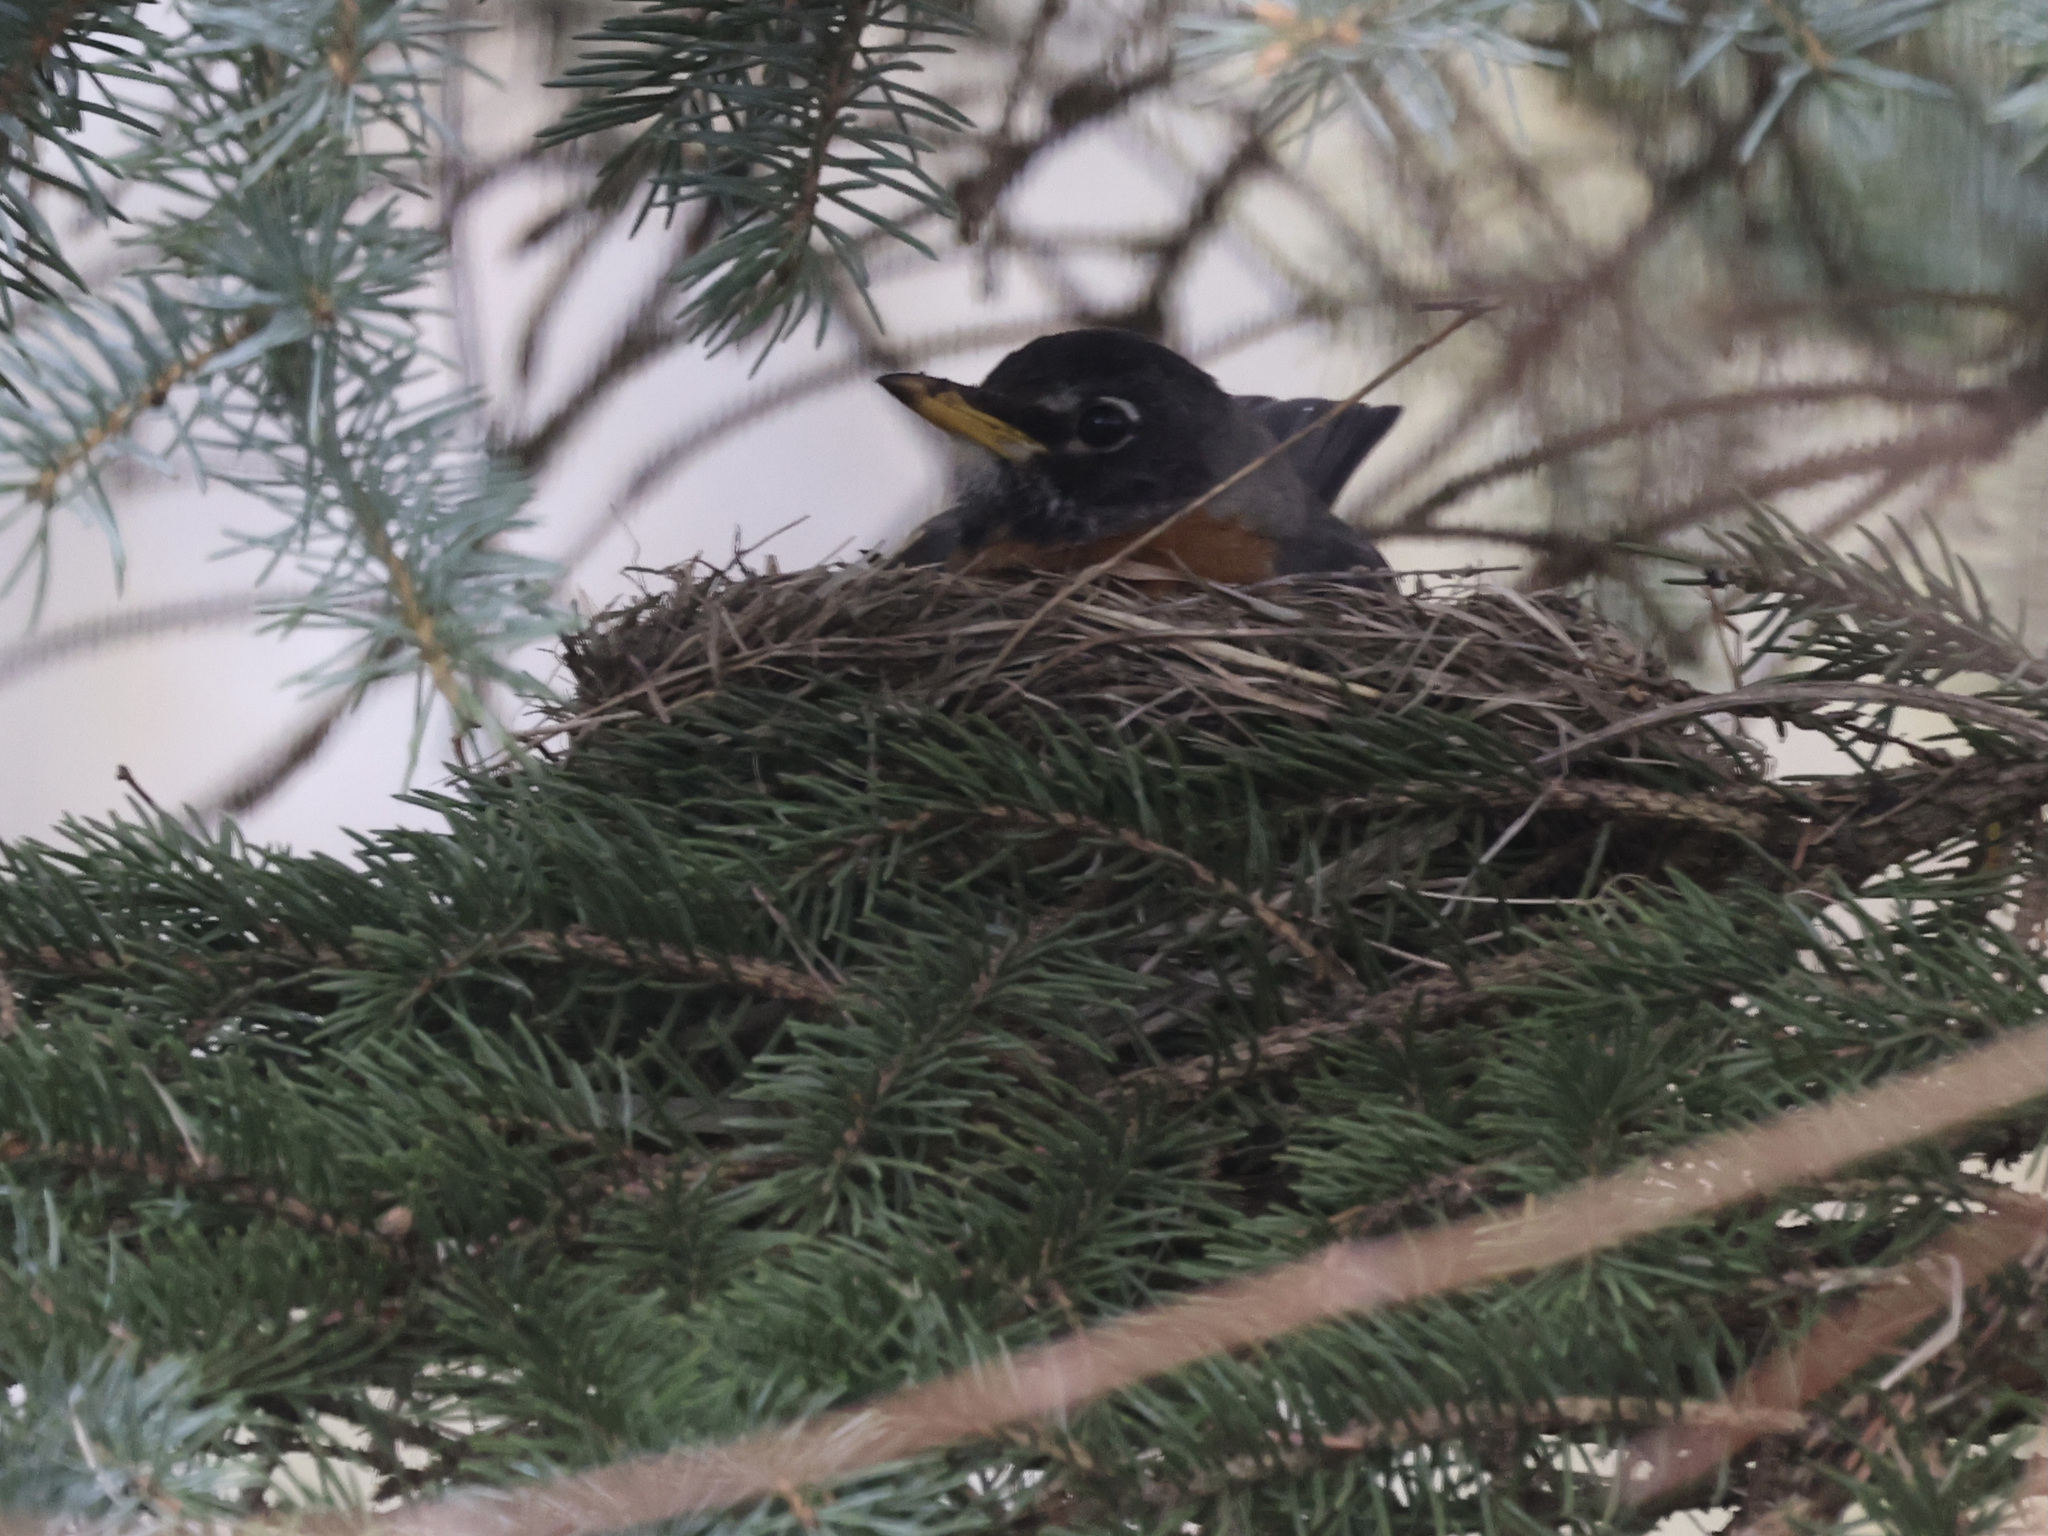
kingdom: Animalia
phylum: Chordata
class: Aves
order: Passeriformes
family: Turdidae
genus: Turdus
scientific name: Turdus migratorius
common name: American robin
